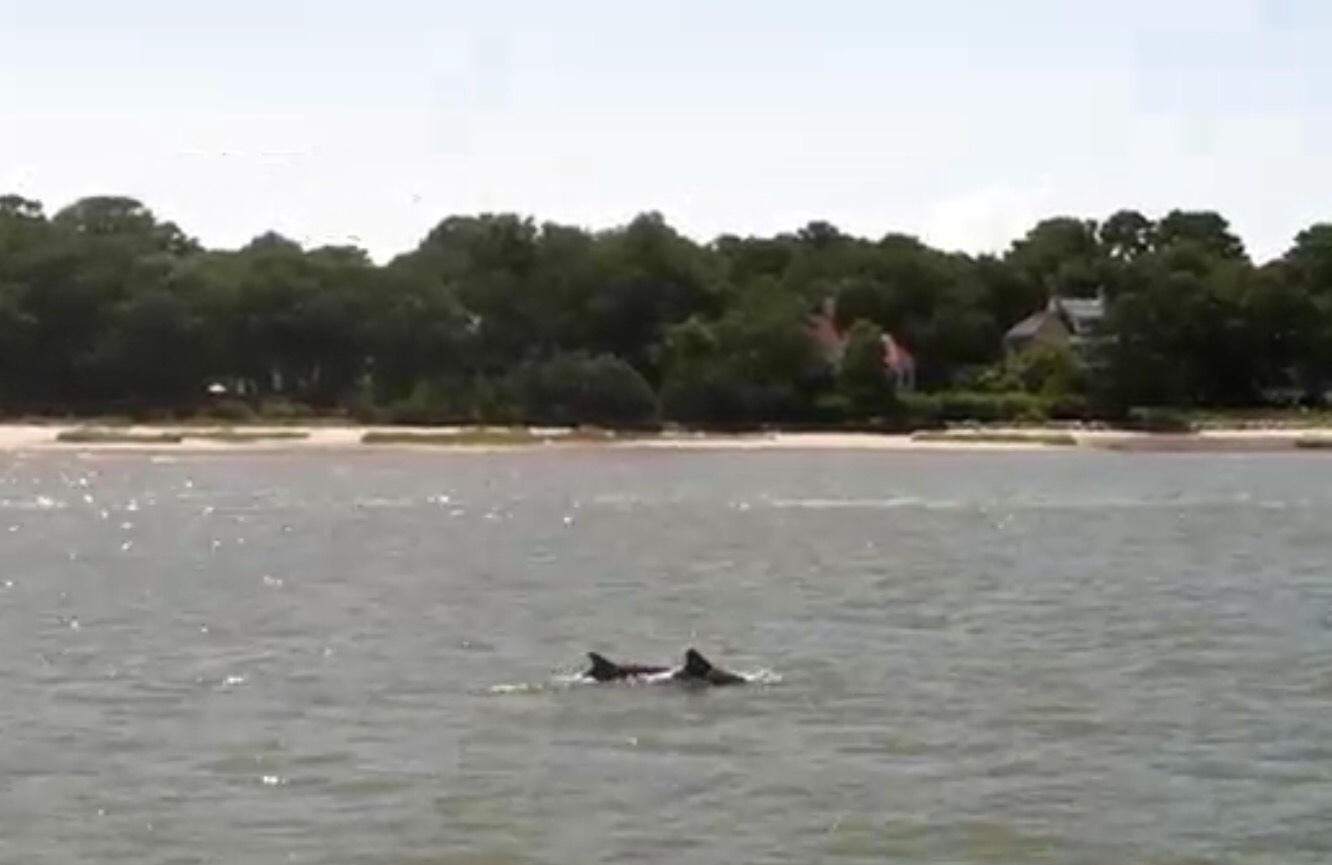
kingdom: Animalia
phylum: Chordata
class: Mammalia
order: Cetacea
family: Delphinidae
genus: Tursiops
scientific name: Tursiops truncatus
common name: Bottlenose dolphin
